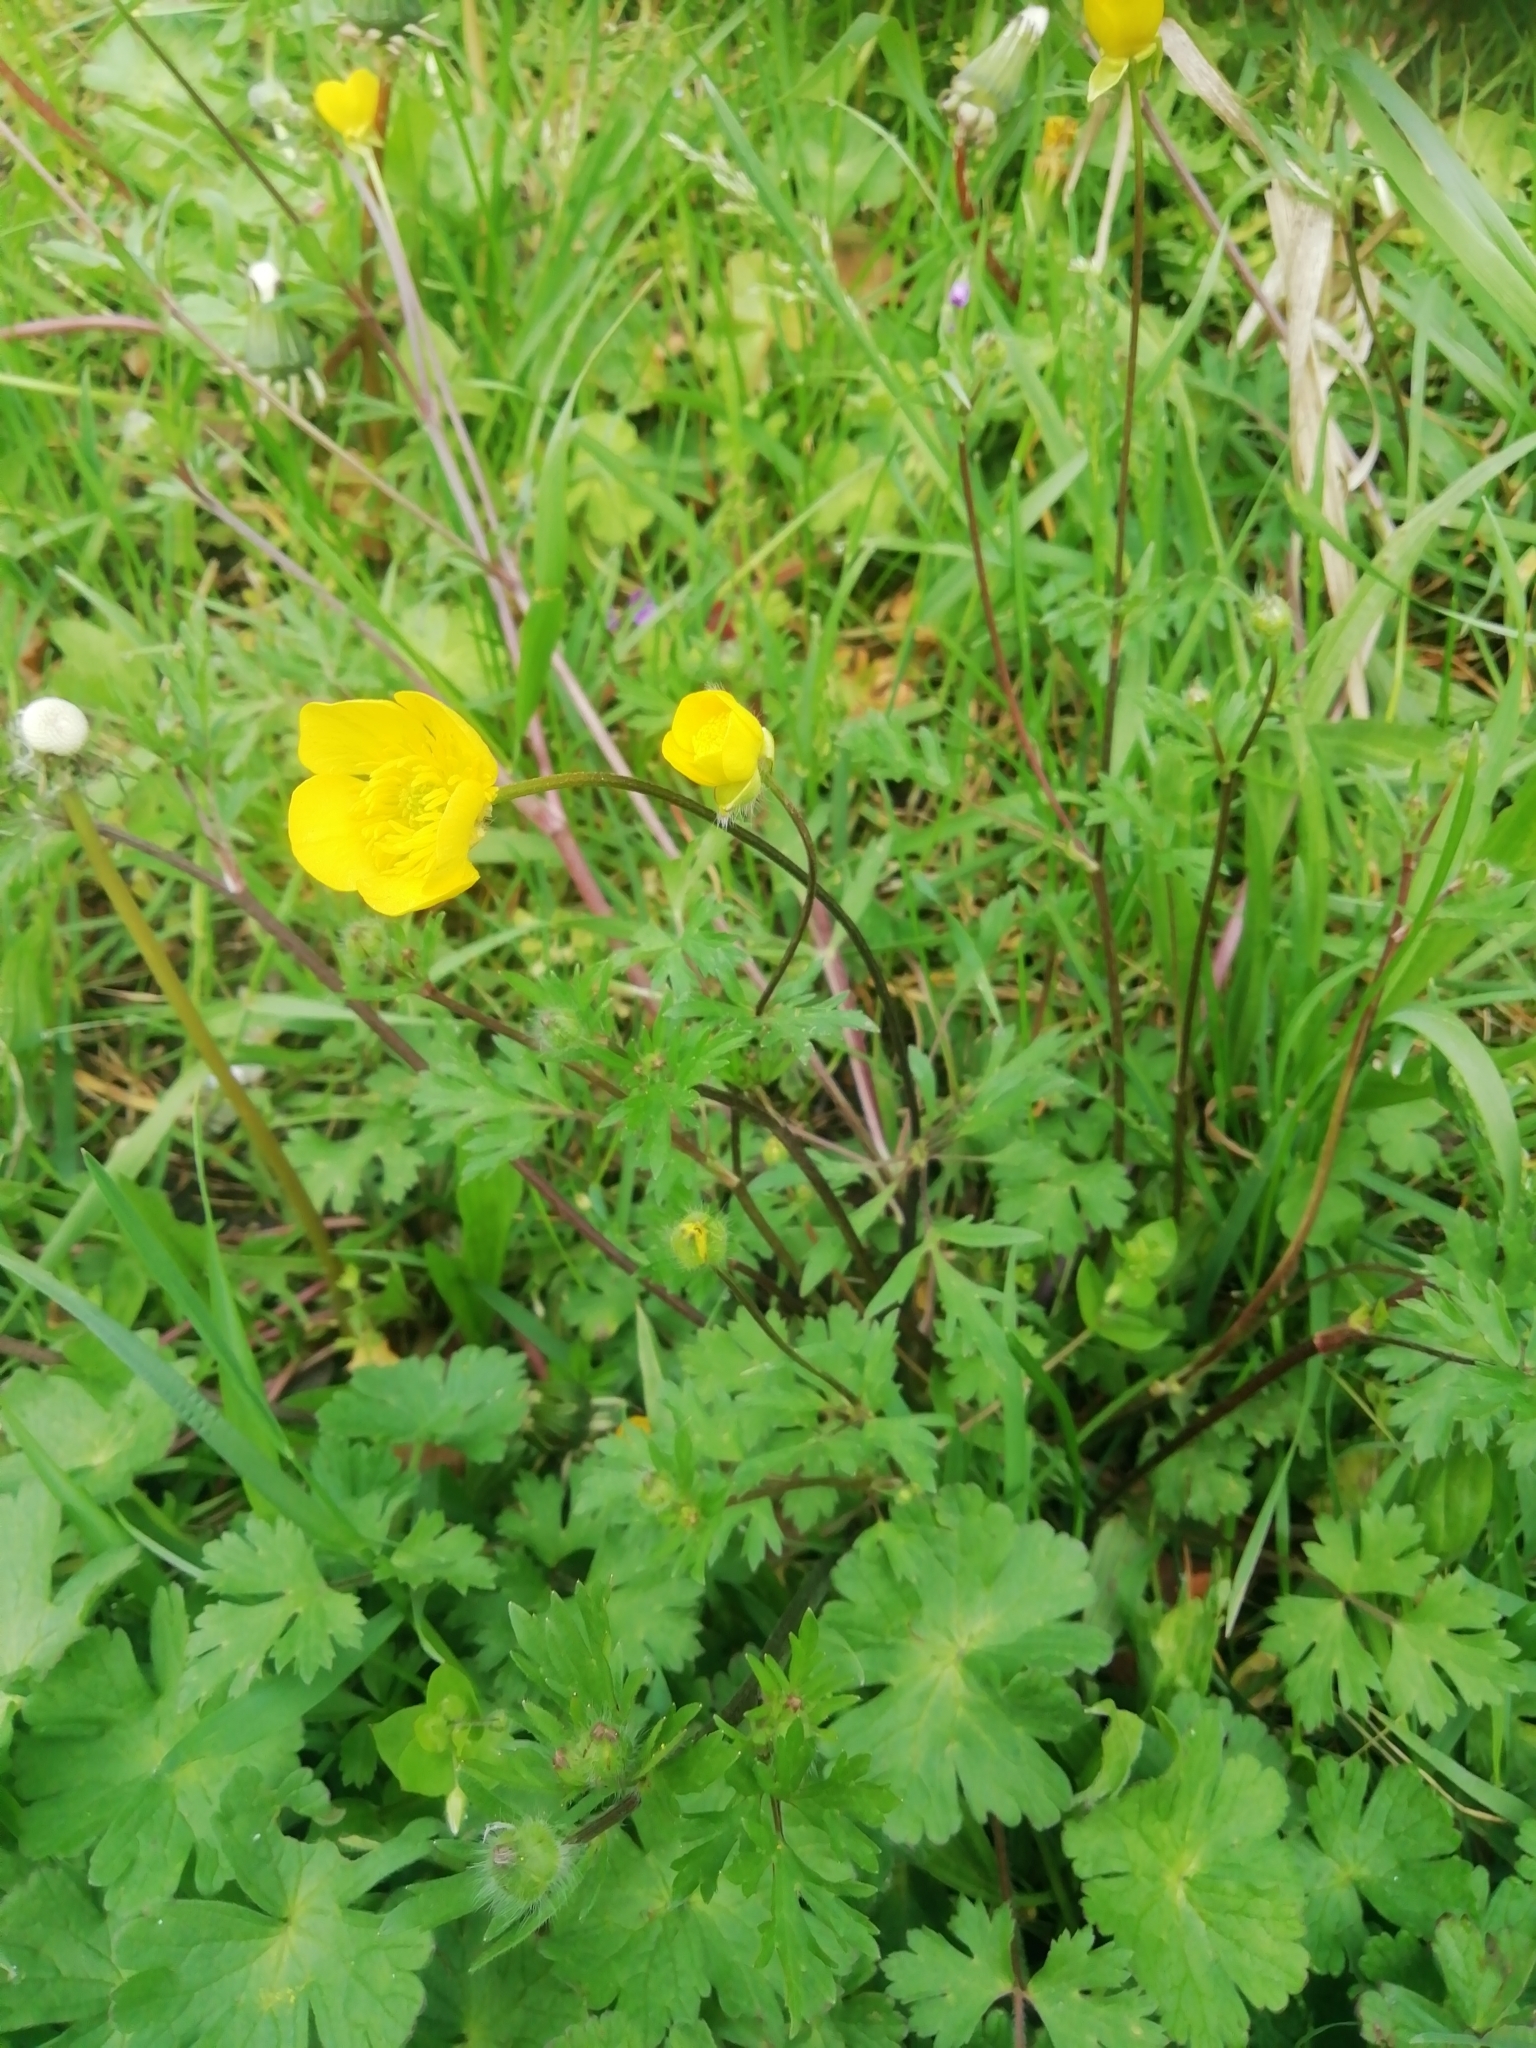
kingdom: Plantae
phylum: Tracheophyta
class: Magnoliopsida
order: Ranunculales
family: Ranunculaceae
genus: Ranunculus
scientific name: Ranunculus bulbosus
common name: Bulbous buttercup
